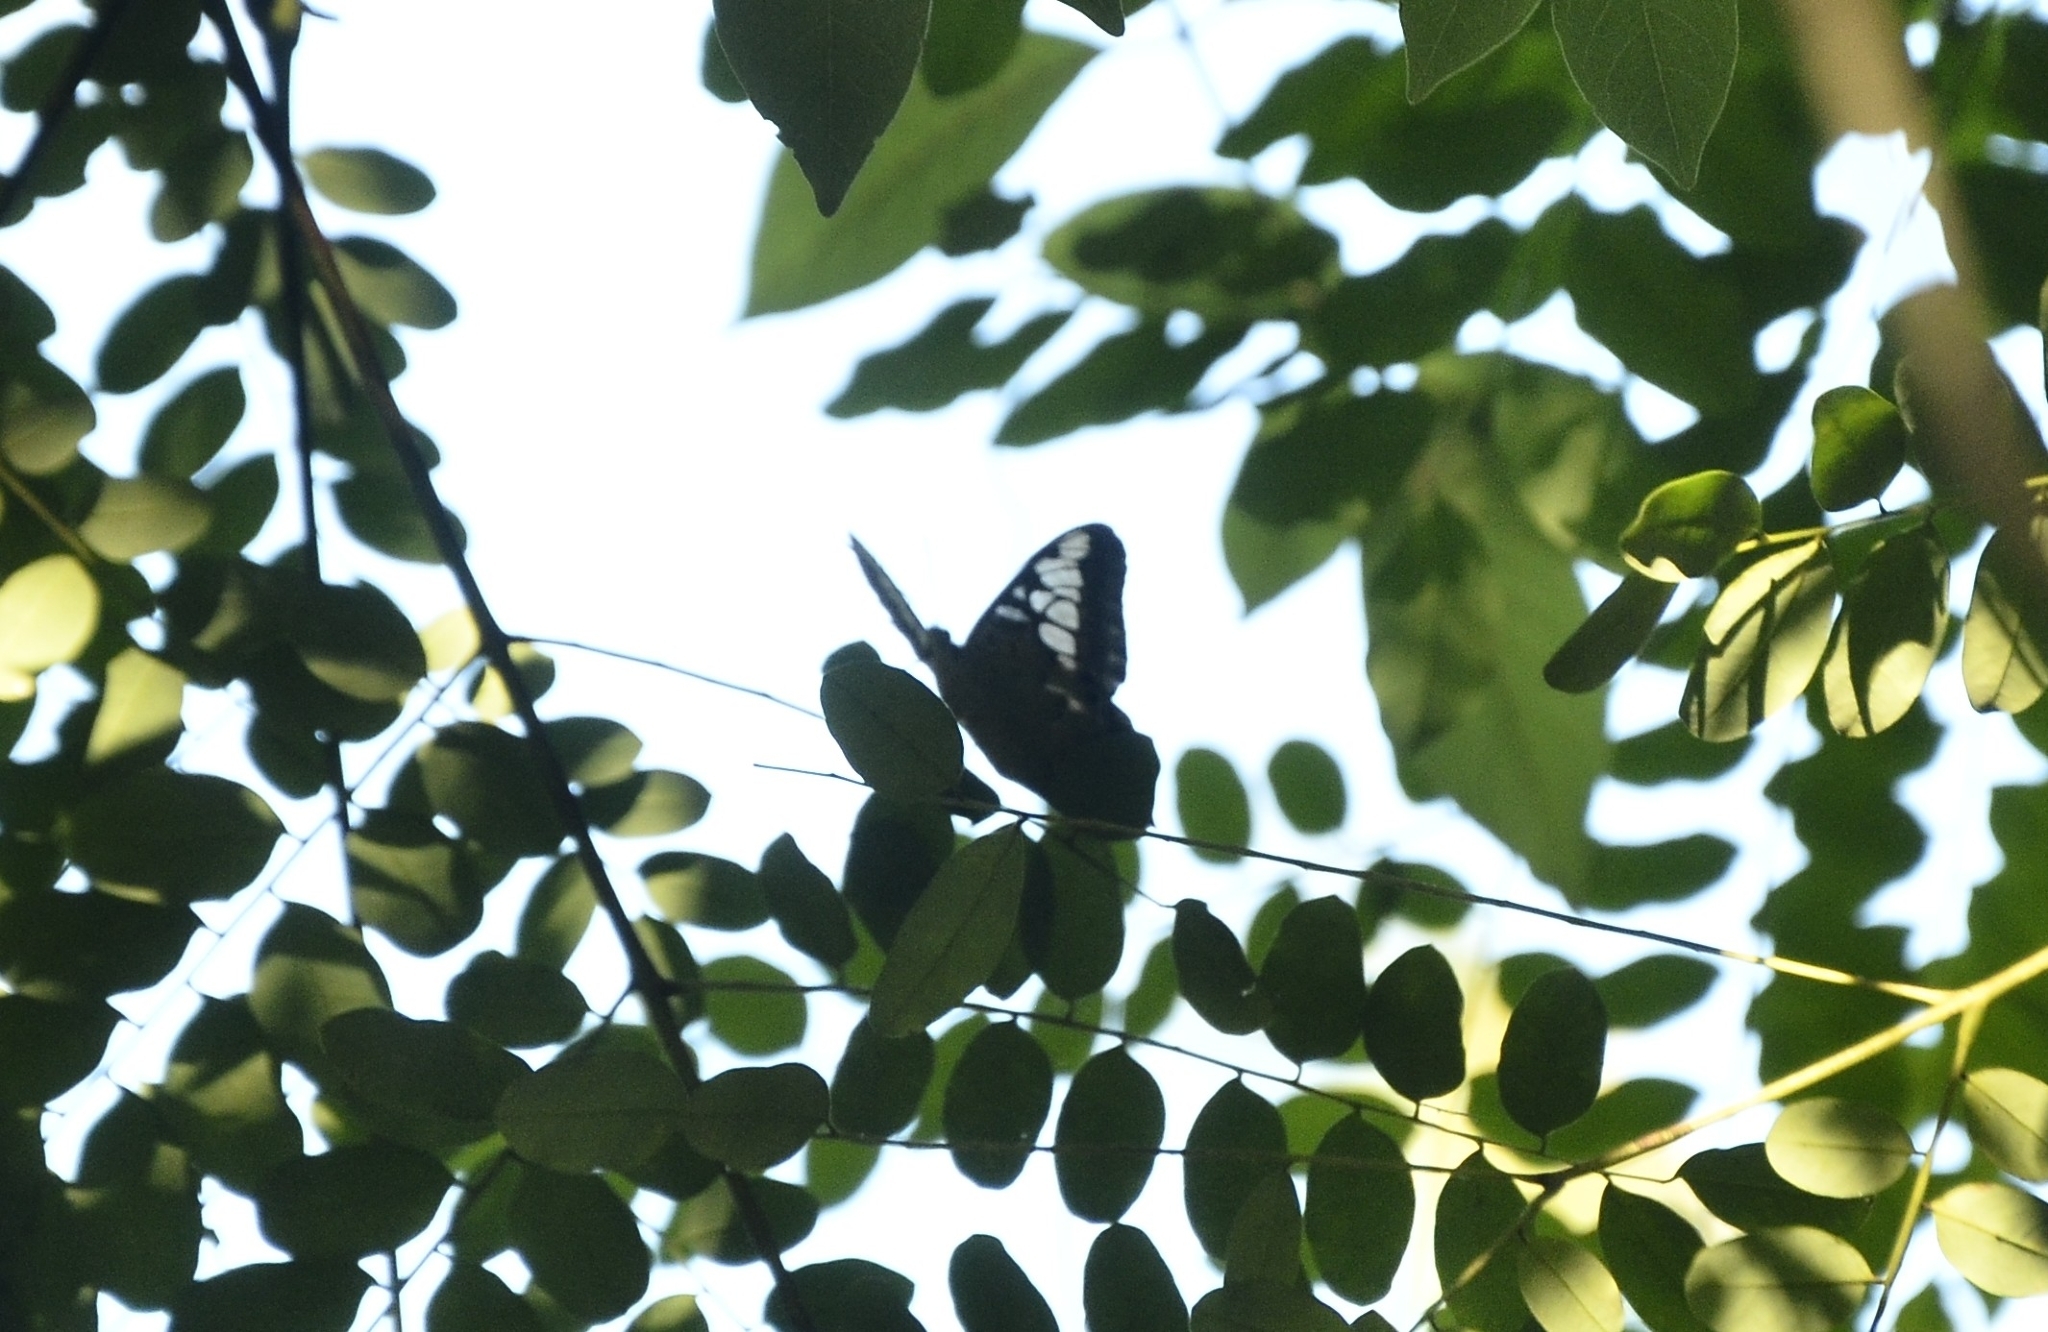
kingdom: Animalia
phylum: Arthropoda
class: Insecta
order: Lepidoptera
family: Nymphalidae
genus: Kallima
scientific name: Kallima sylvia
